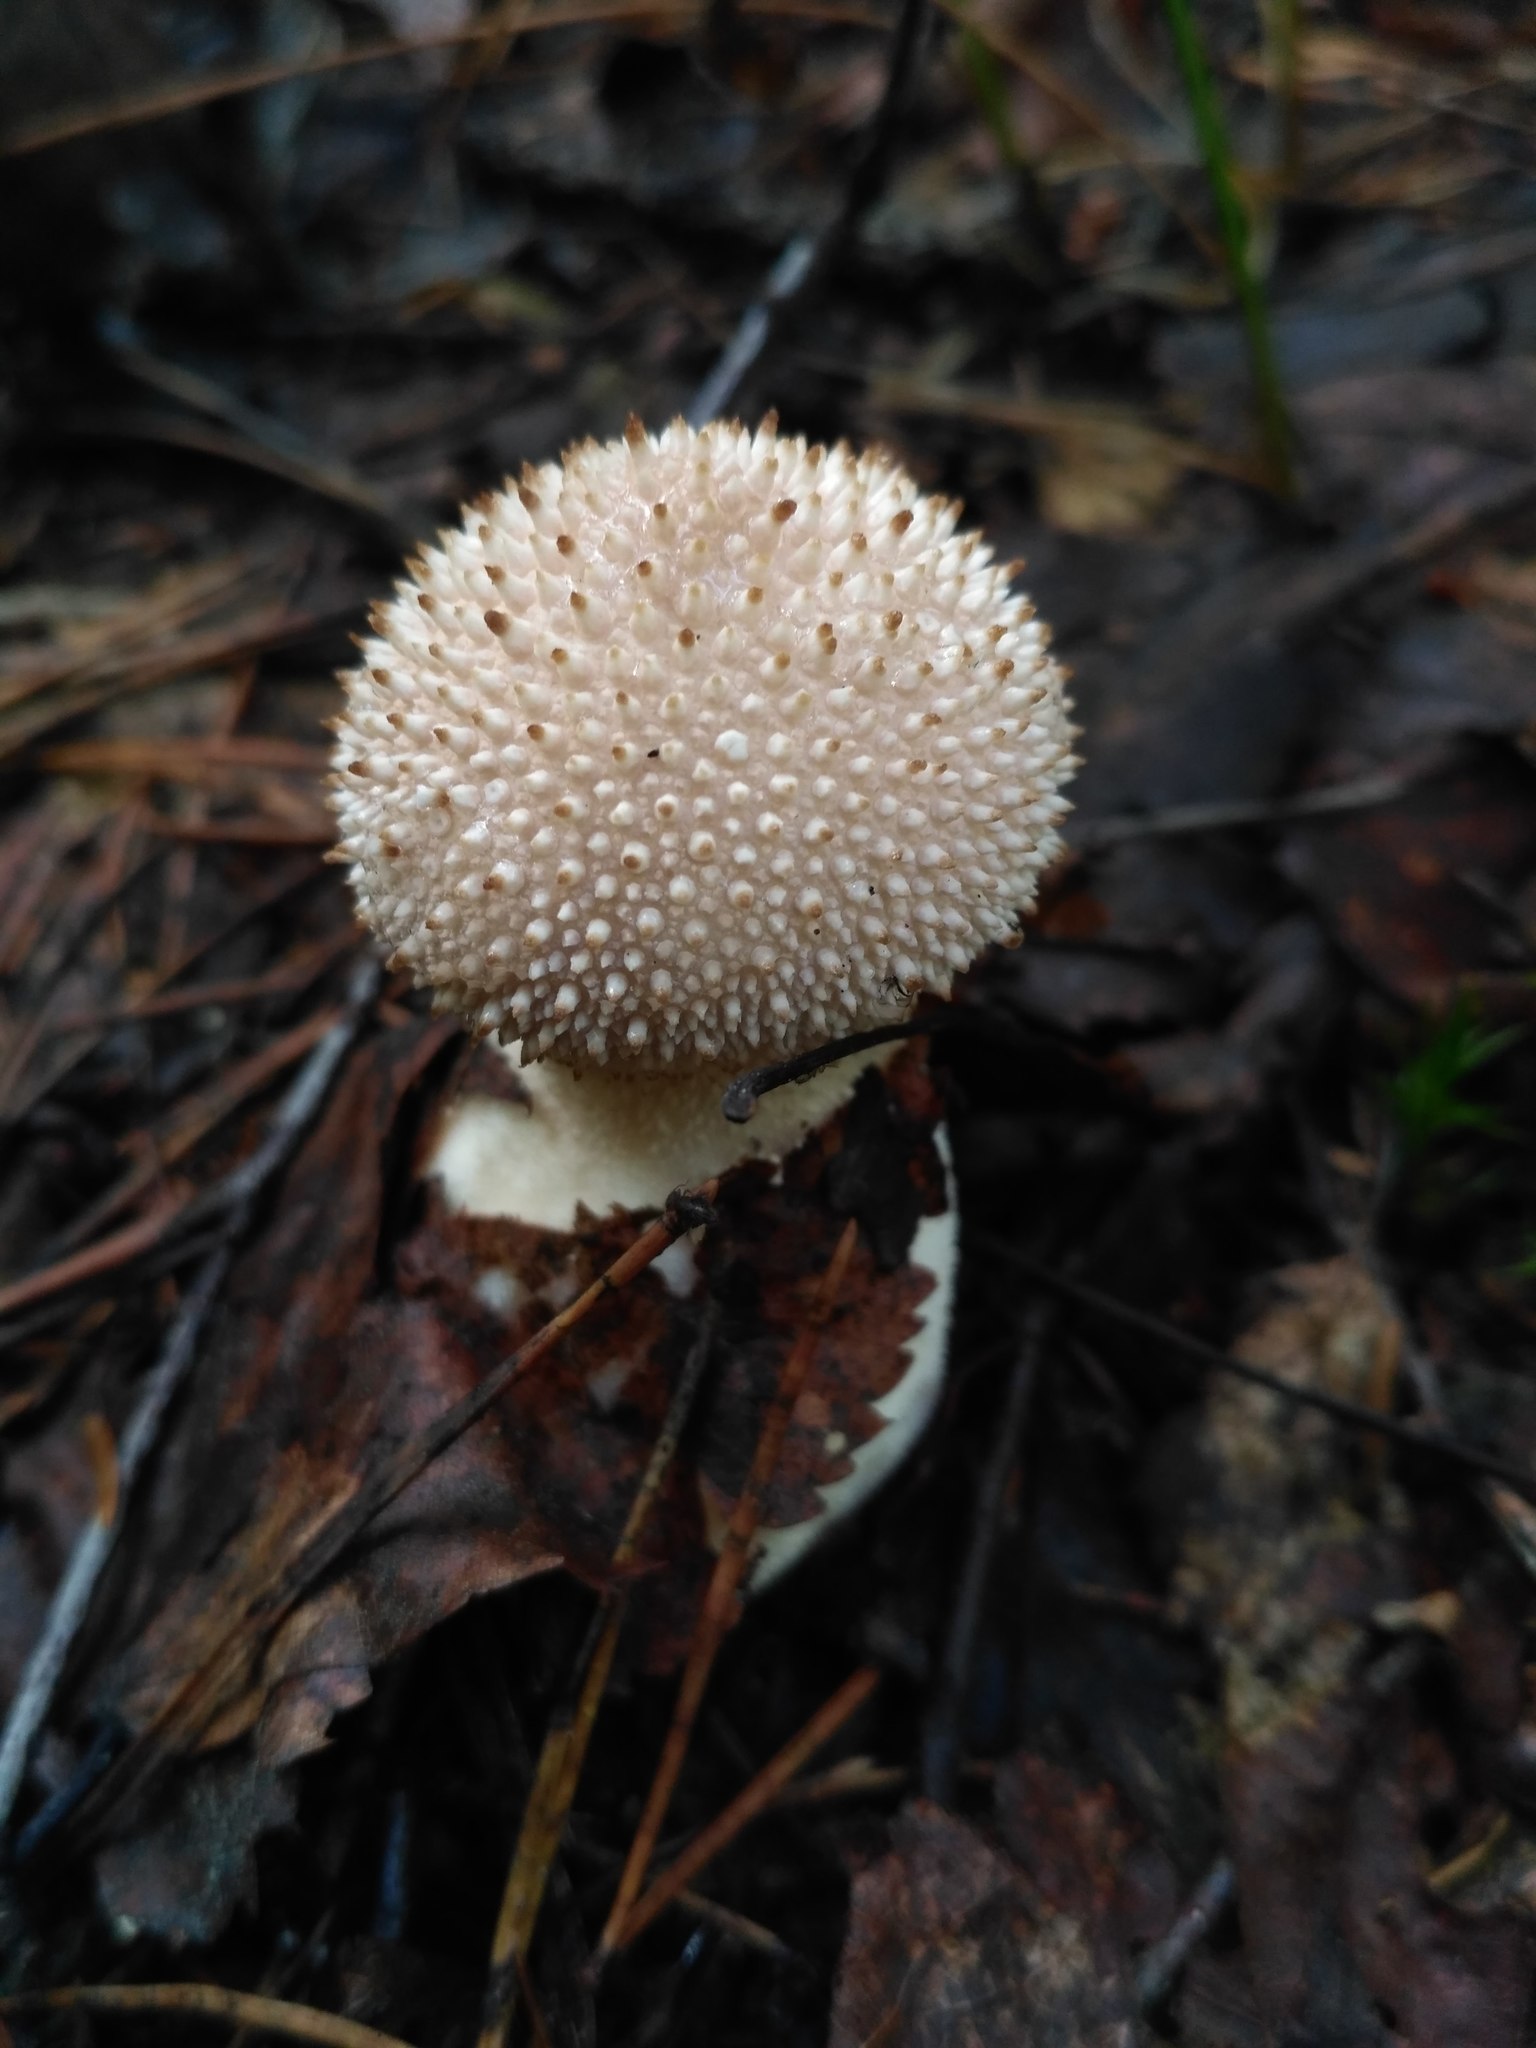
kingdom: Fungi
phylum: Basidiomycota
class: Agaricomycetes
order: Agaricales
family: Lycoperdaceae
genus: Lycoperdon
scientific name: Lycoperdon perlatum
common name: Common puffball
